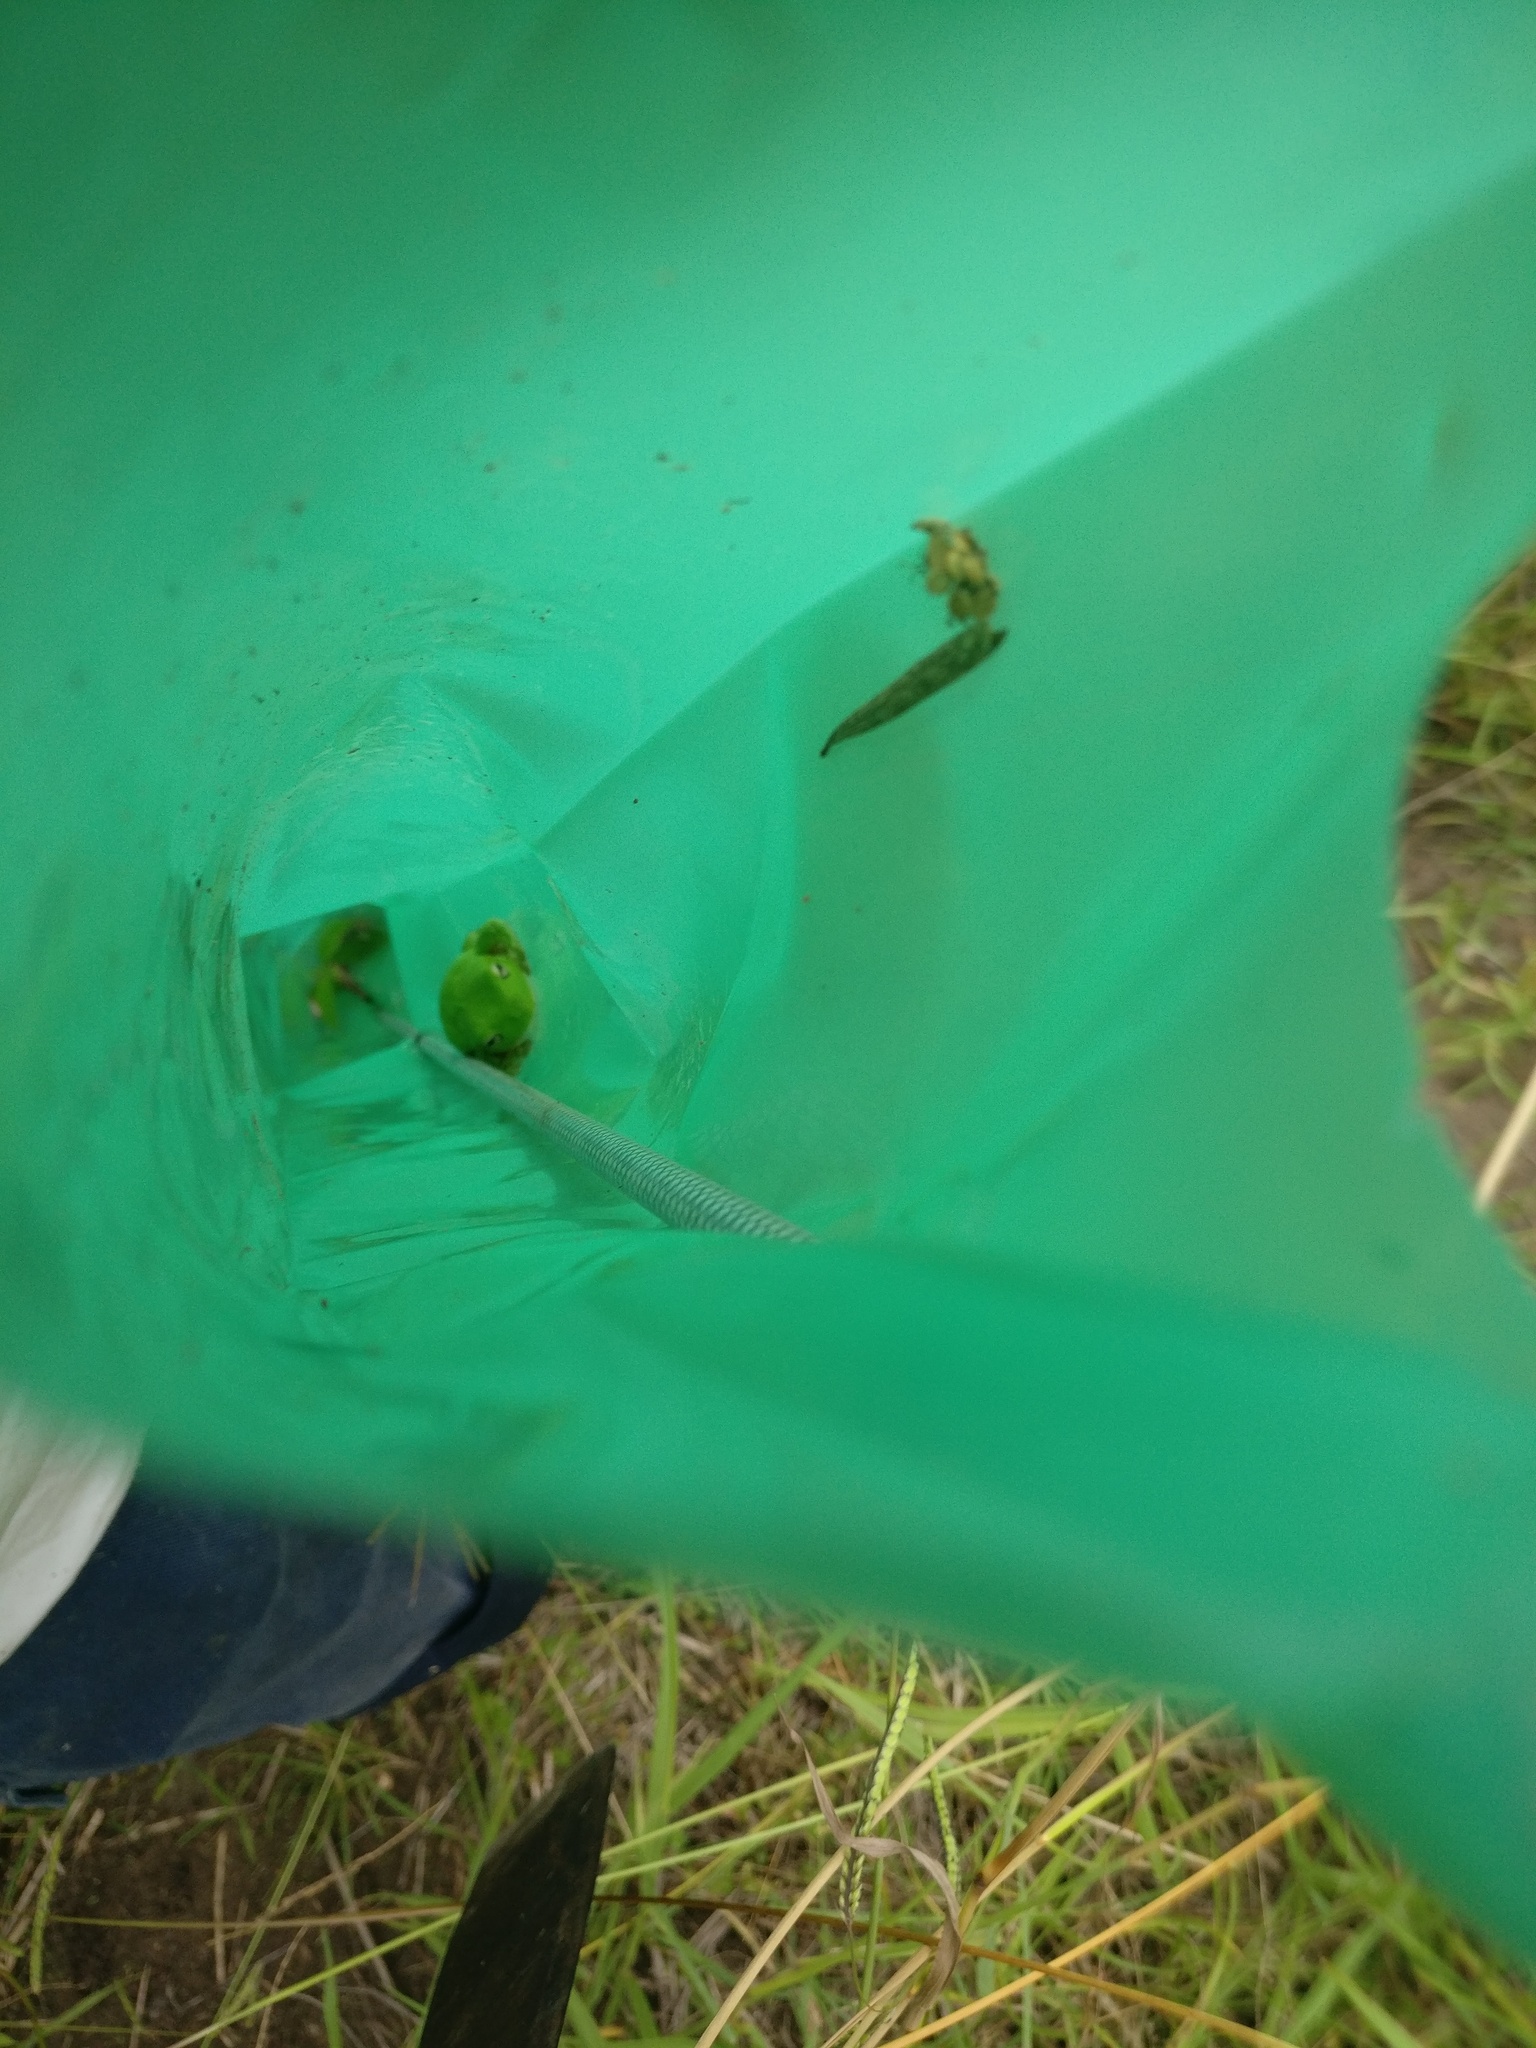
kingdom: Animalia
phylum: Chordata
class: Amphibia
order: Anura
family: Pelodryadidae
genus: Ranoidea
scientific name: Ranoidea caerulea
